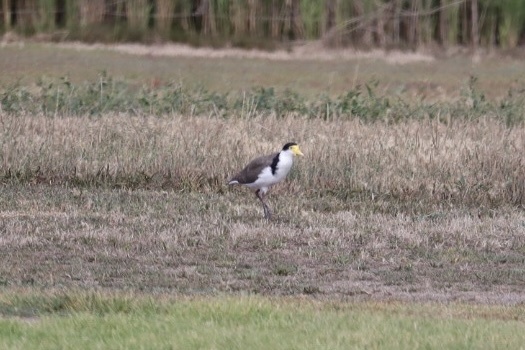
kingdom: Animalia
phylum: Chordata
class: Aves
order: Charadriiformes
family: Charadriidae
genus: Vanellus
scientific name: Vanellus miles
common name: Masked lapwing
